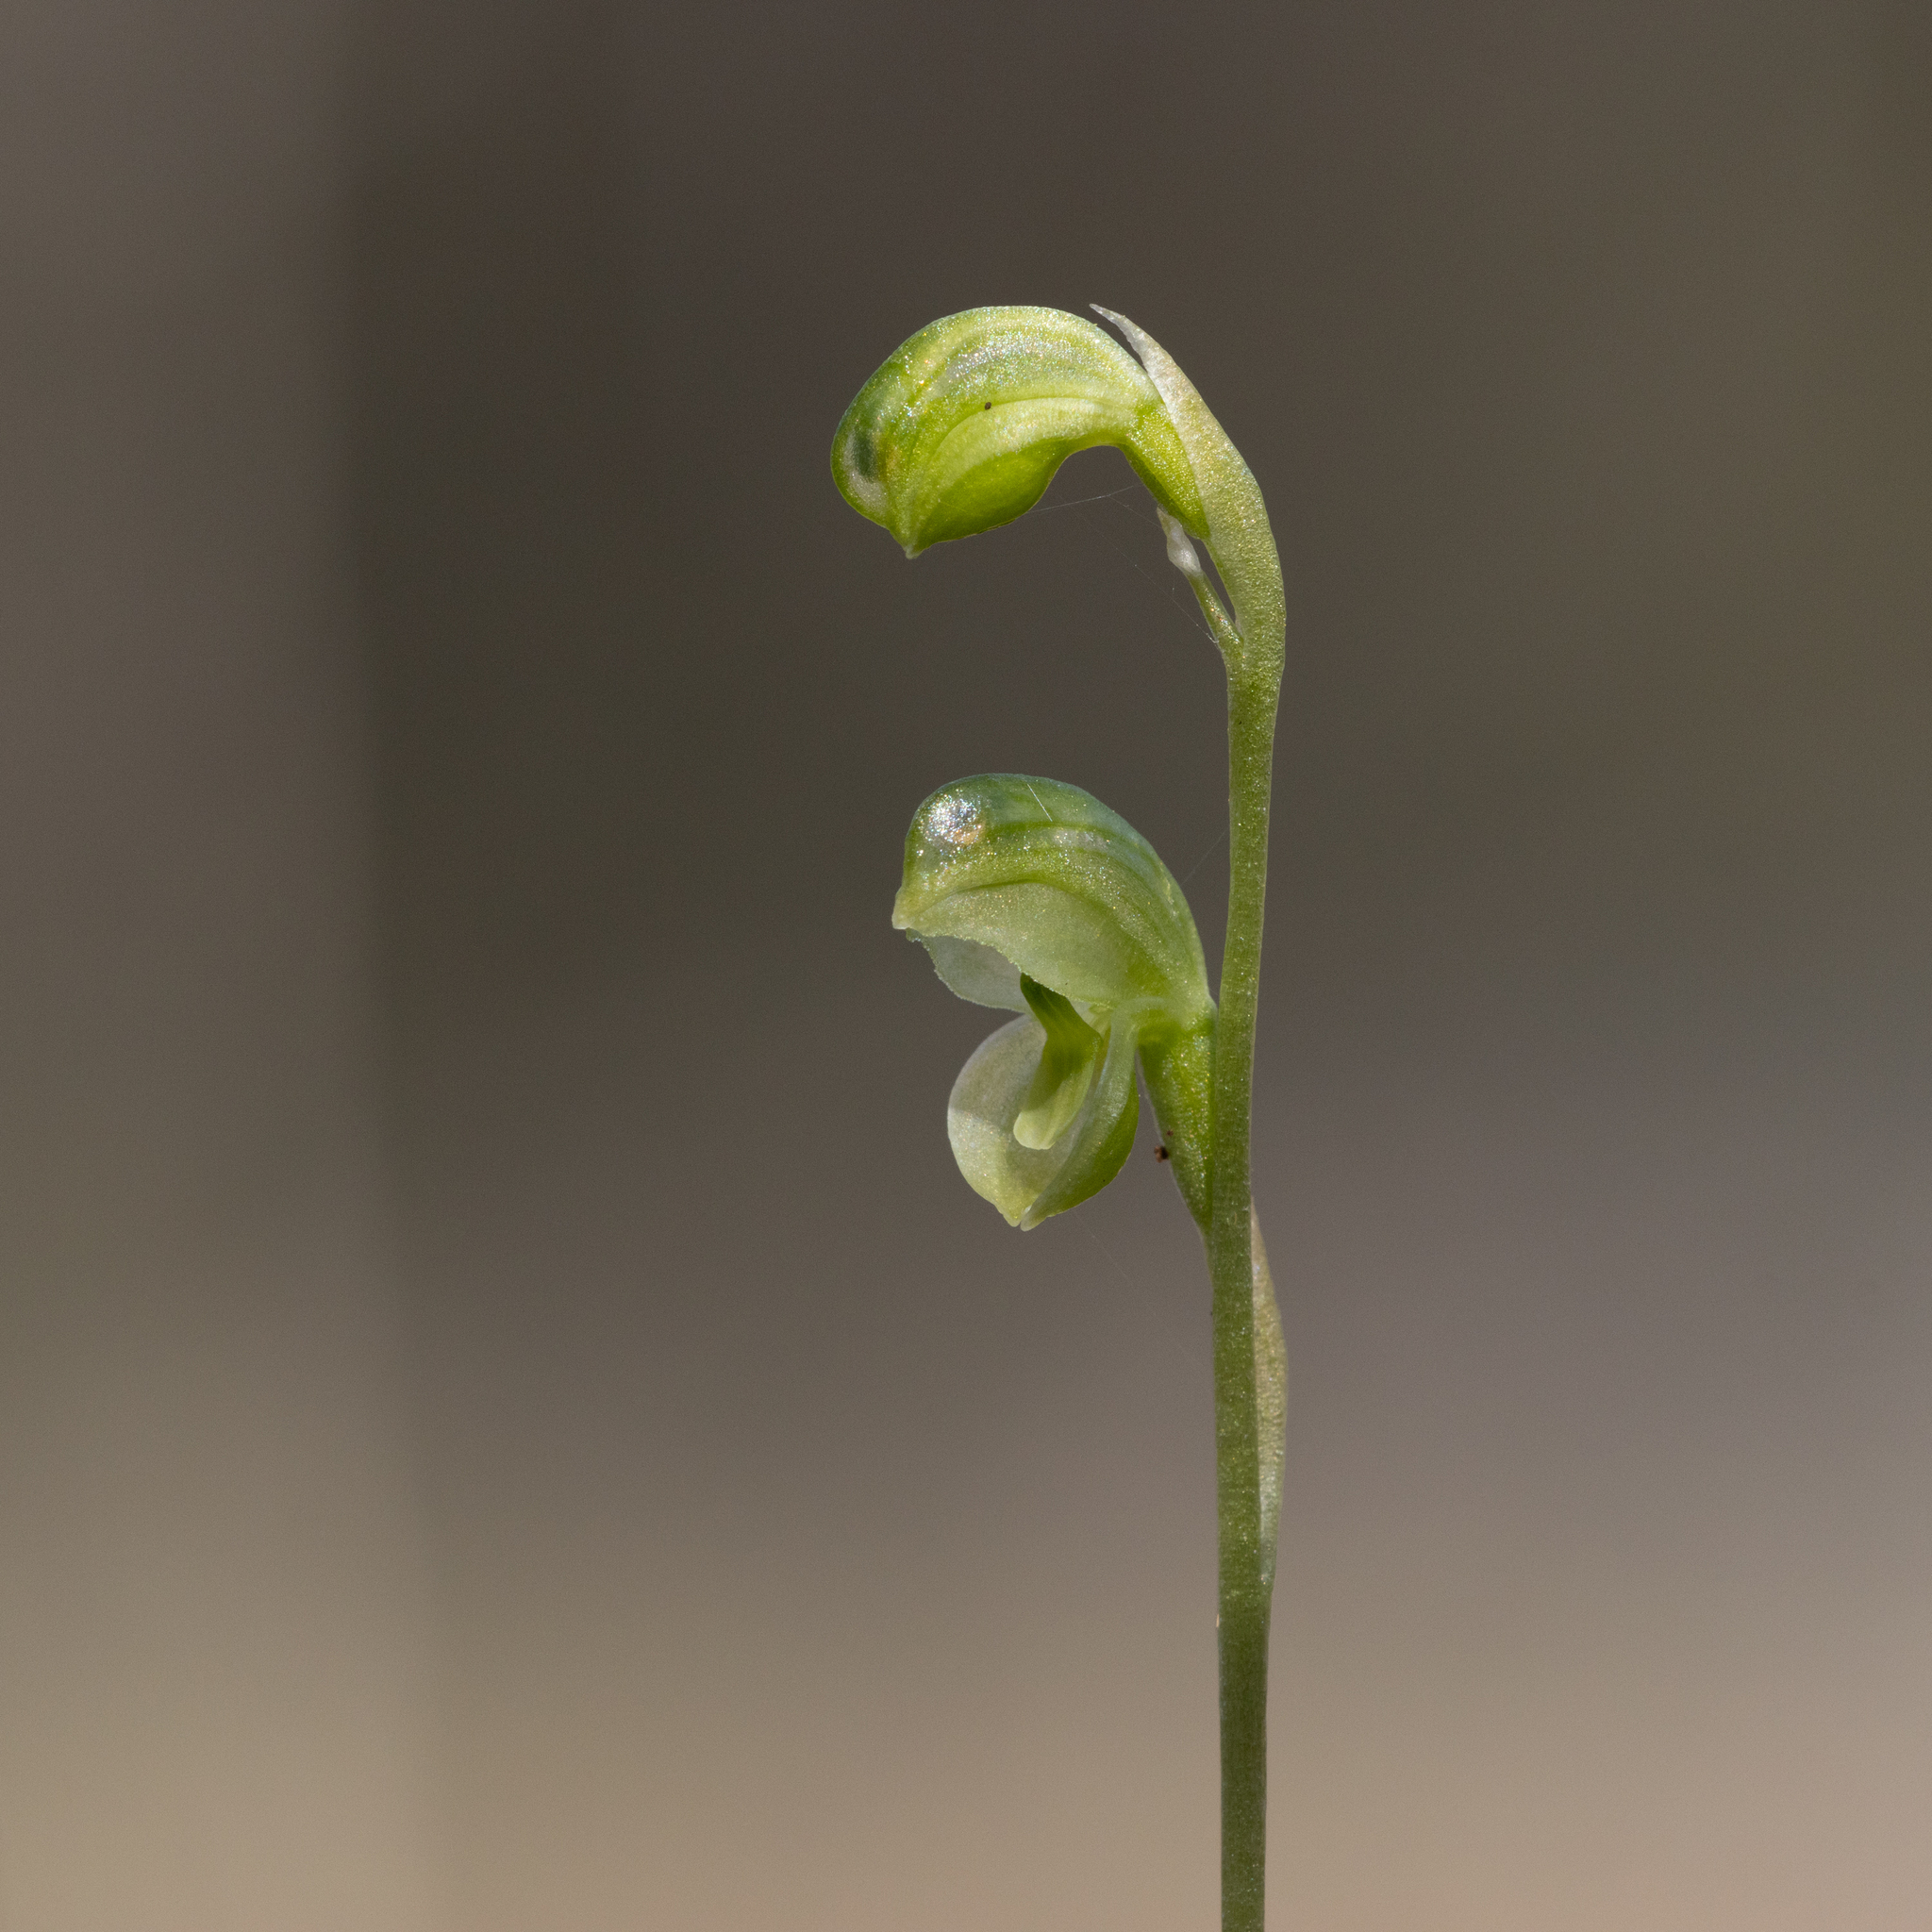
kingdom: Plantae
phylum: Tracheophyta
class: Liliopsida
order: Asparagales
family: Orchidaceae
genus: Pterostylis
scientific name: Pterostylis mutica
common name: Midget greenhood
